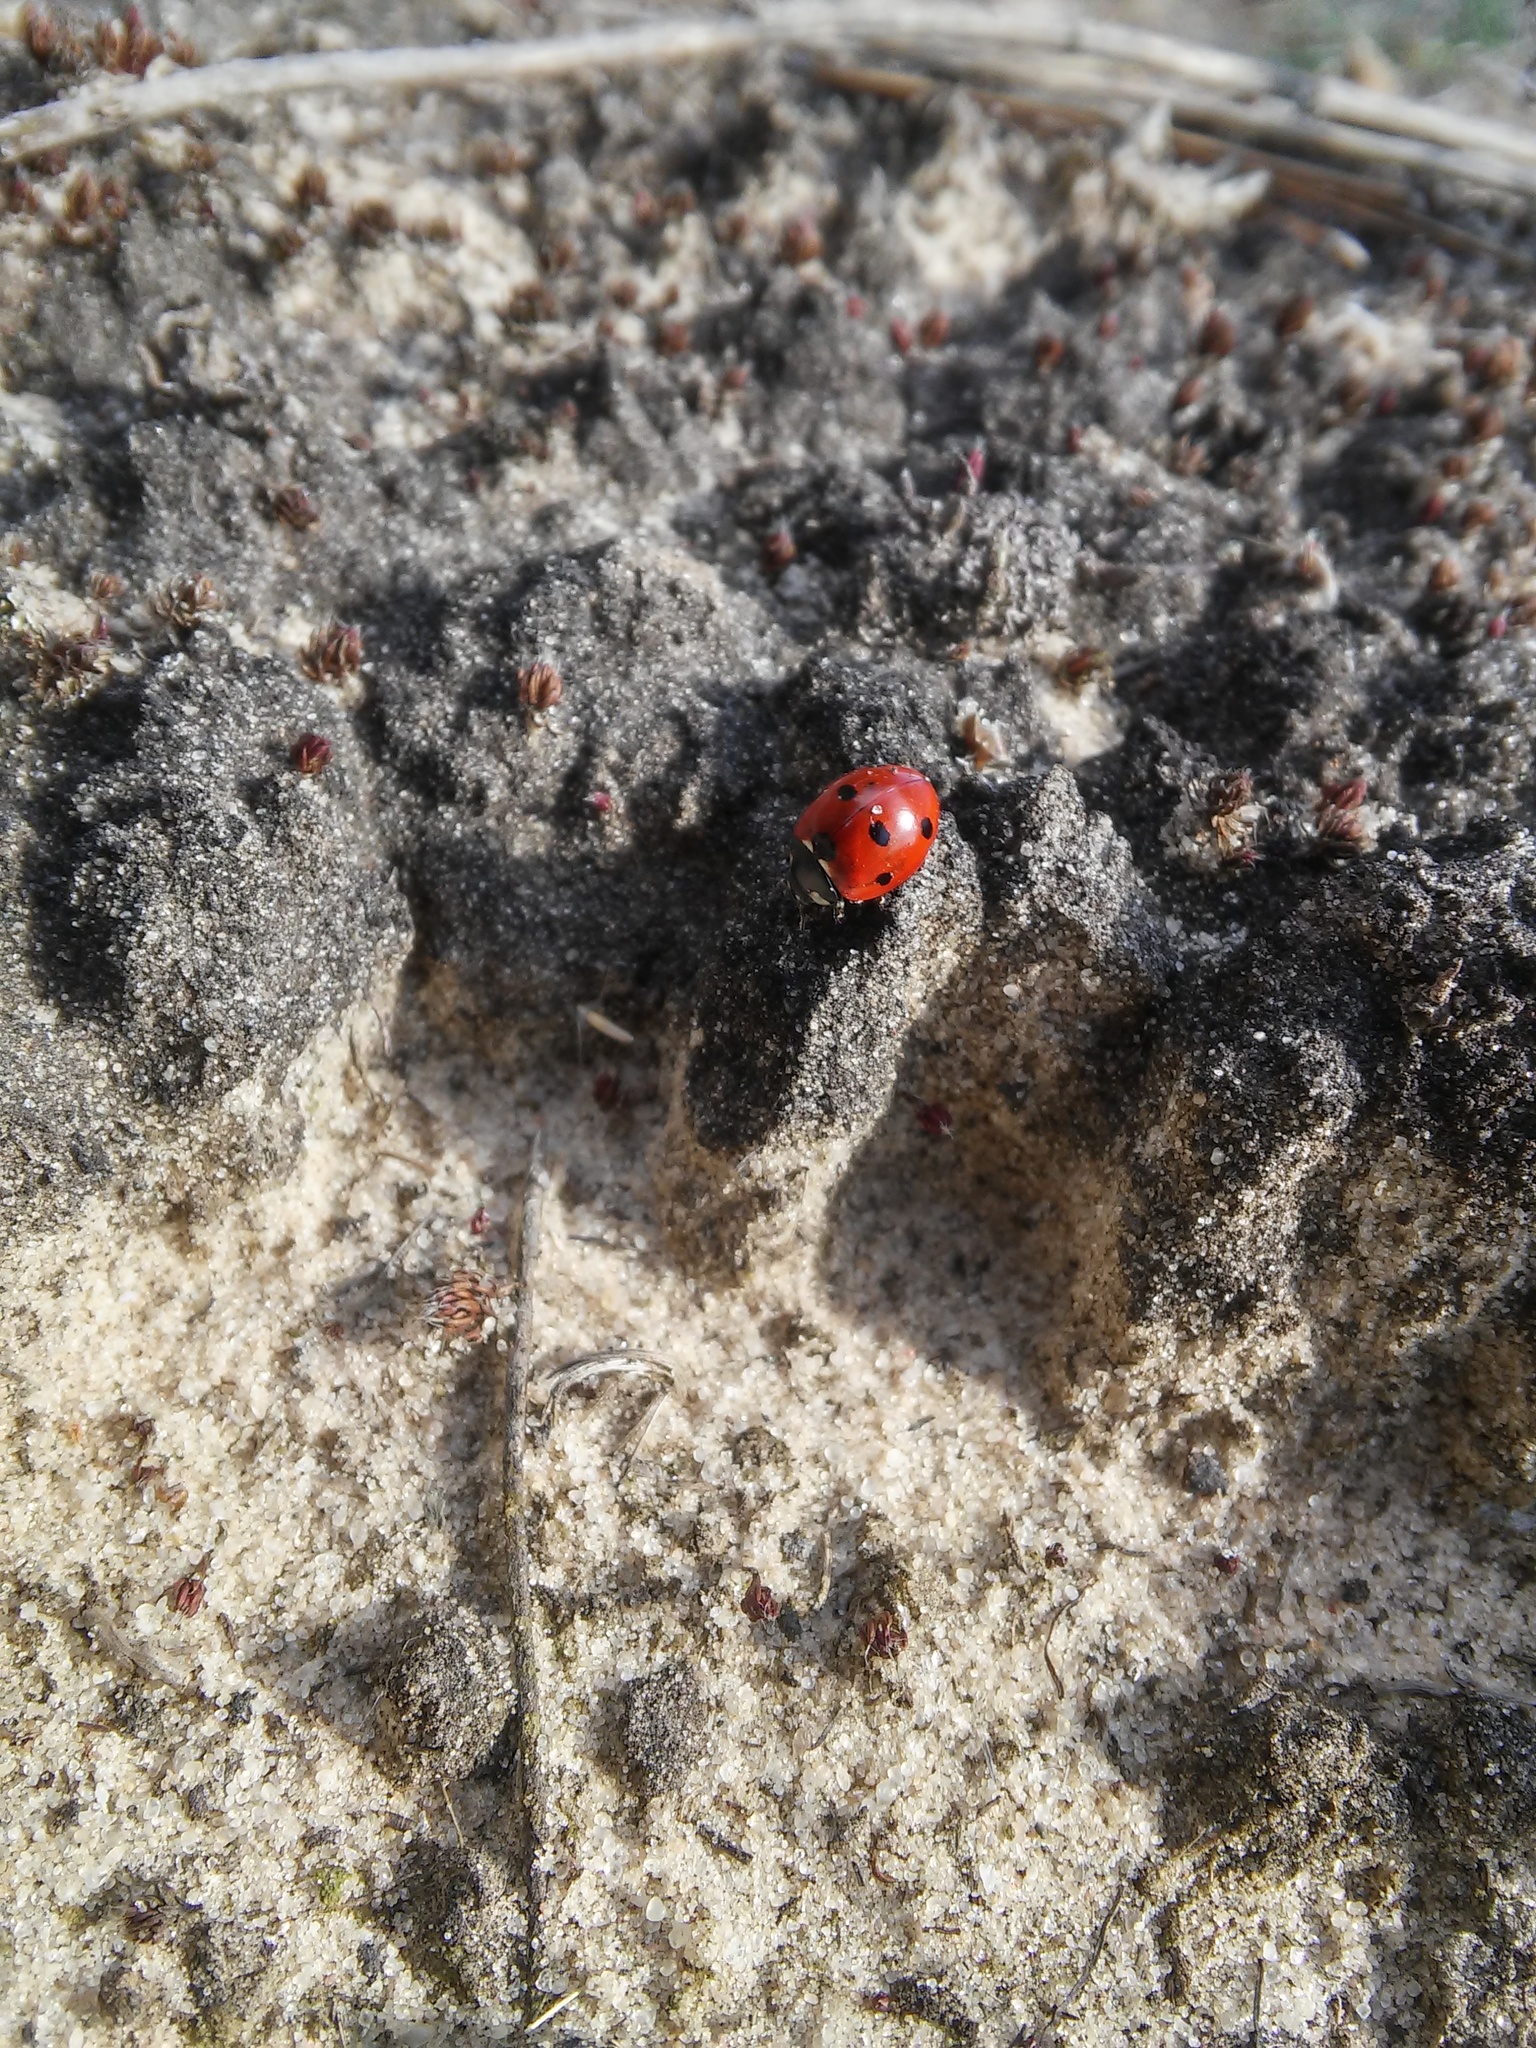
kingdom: Animalia
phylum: Arthropoda
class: Insecta
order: Coleoptera
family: Coccinellidae
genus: Coccinella
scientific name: Coccinella septempunctata
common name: Sevenspotted lady beetle
